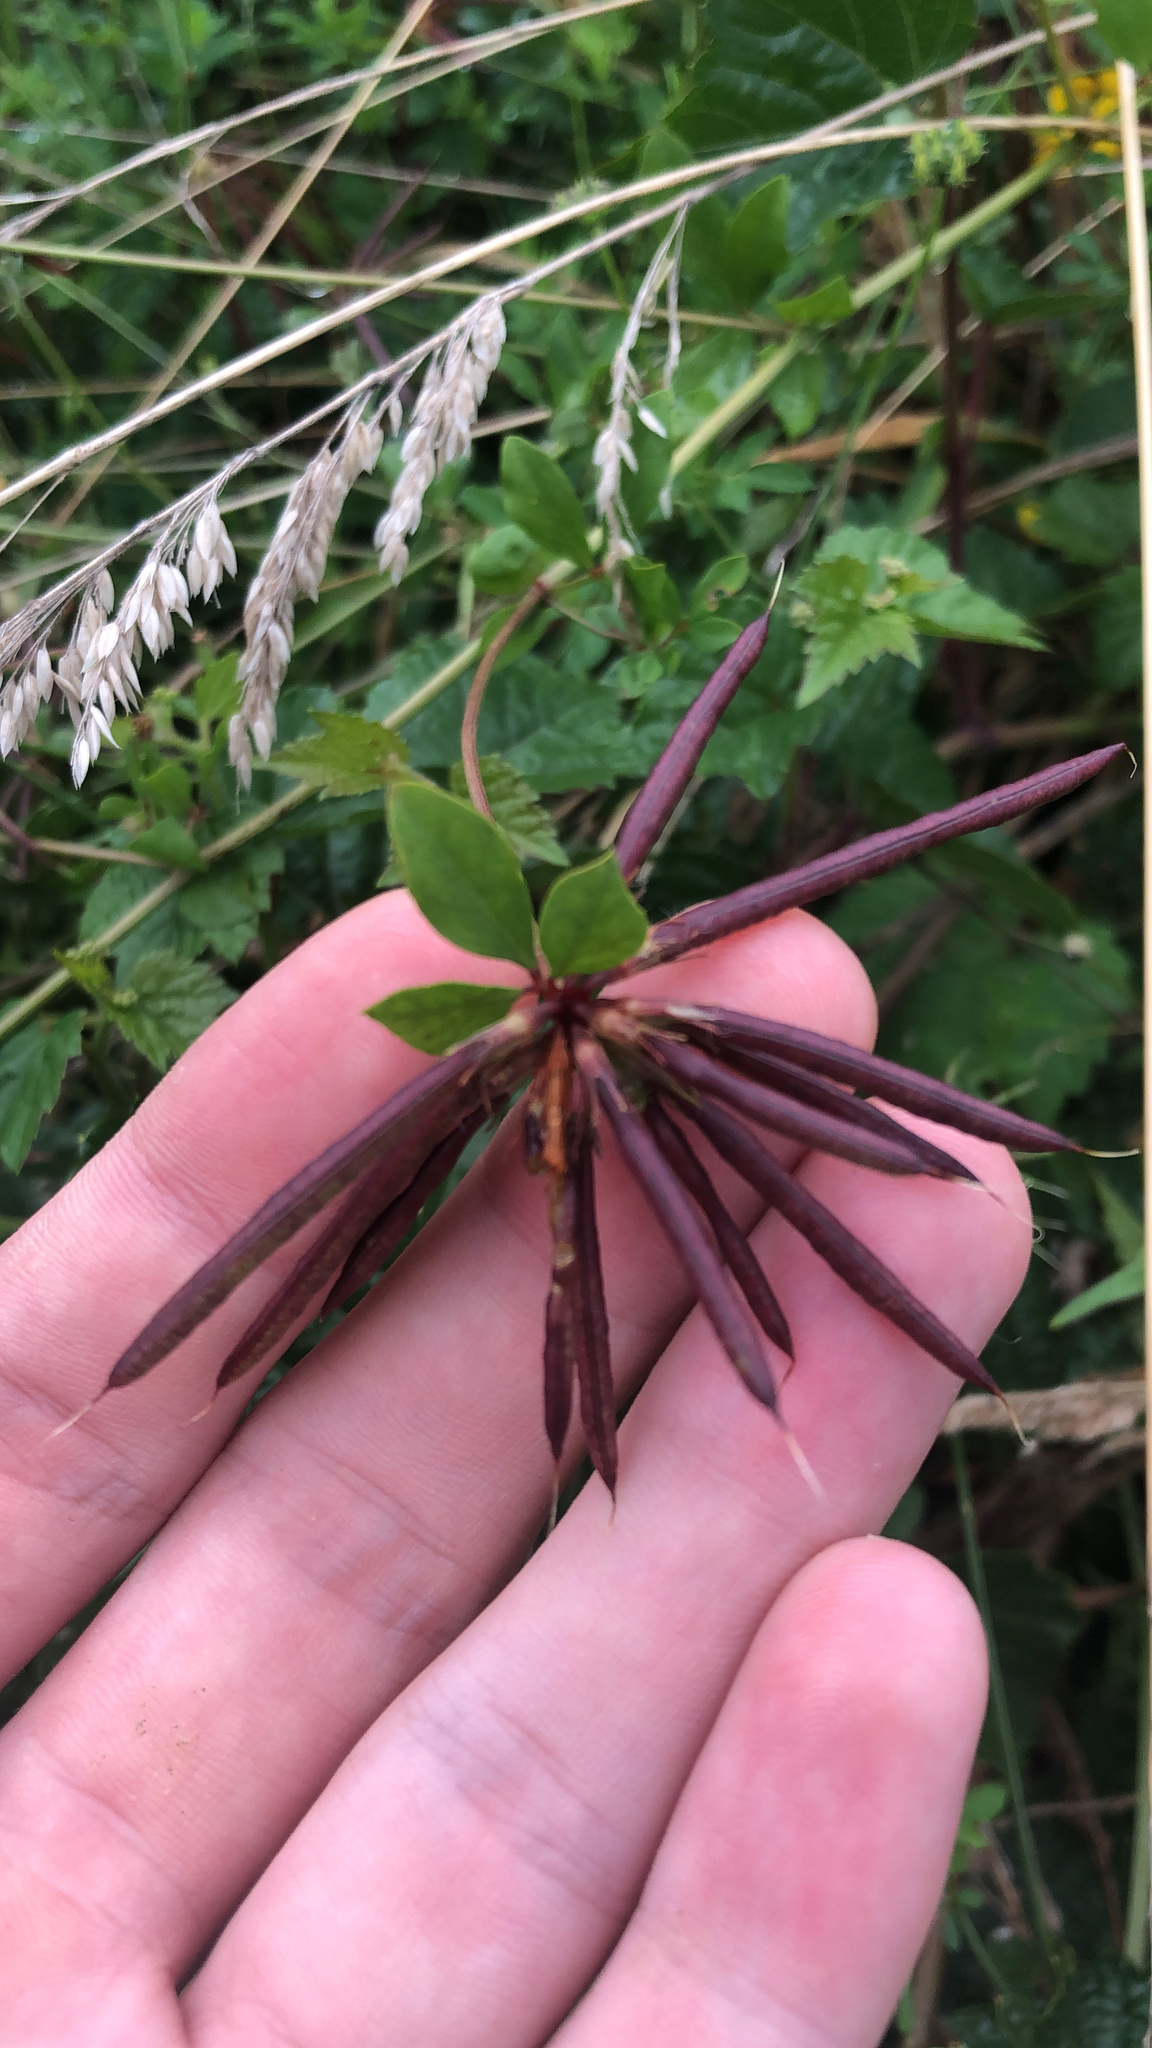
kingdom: Plantae
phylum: Tracheophyta
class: Magnoliopsida
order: Fabales
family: Fabaceae
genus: Lotus
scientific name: Lotus pedunculatus
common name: Greater birdsfoot-trefoil
